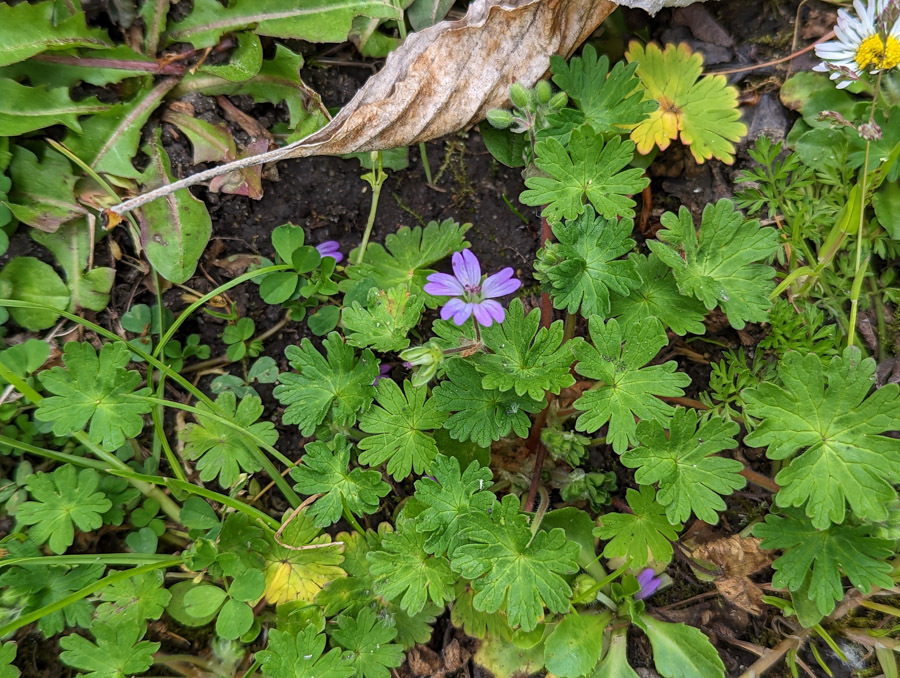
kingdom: Plantae
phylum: Tracheophyta
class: Magnoliopsida
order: Geraniales
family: Geraniaceae
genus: Geranium
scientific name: Geranium molle
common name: Dove's-foot crane's-bill
